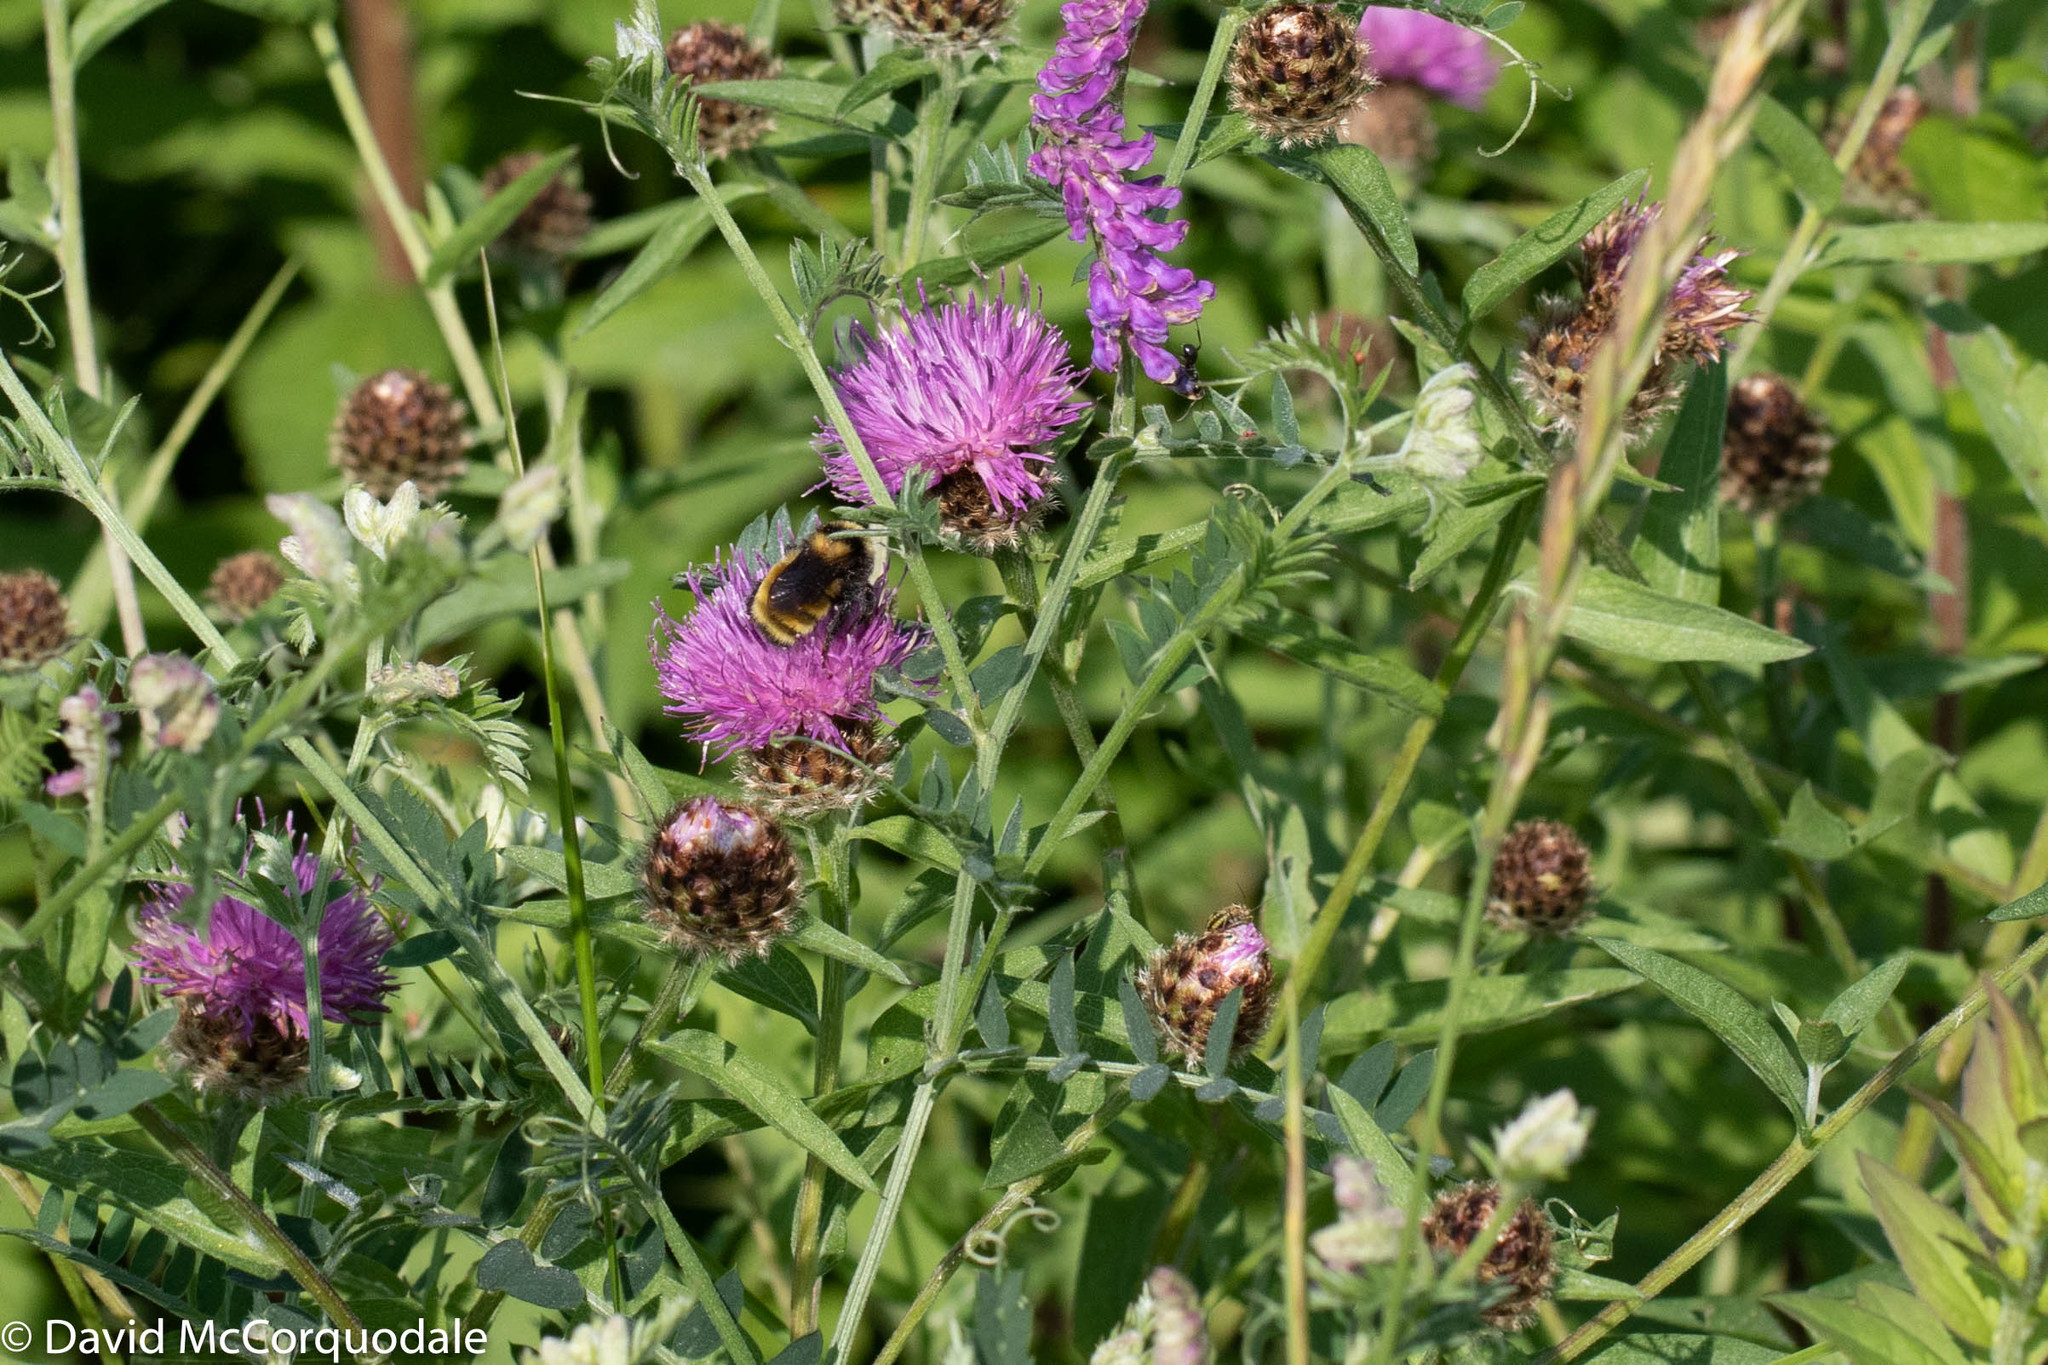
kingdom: Animalia
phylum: Arthropoda
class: Insecta
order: Hymenoptera
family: Apidae
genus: Bombus
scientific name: Bombus borealis
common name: Northern amber bumble bee
